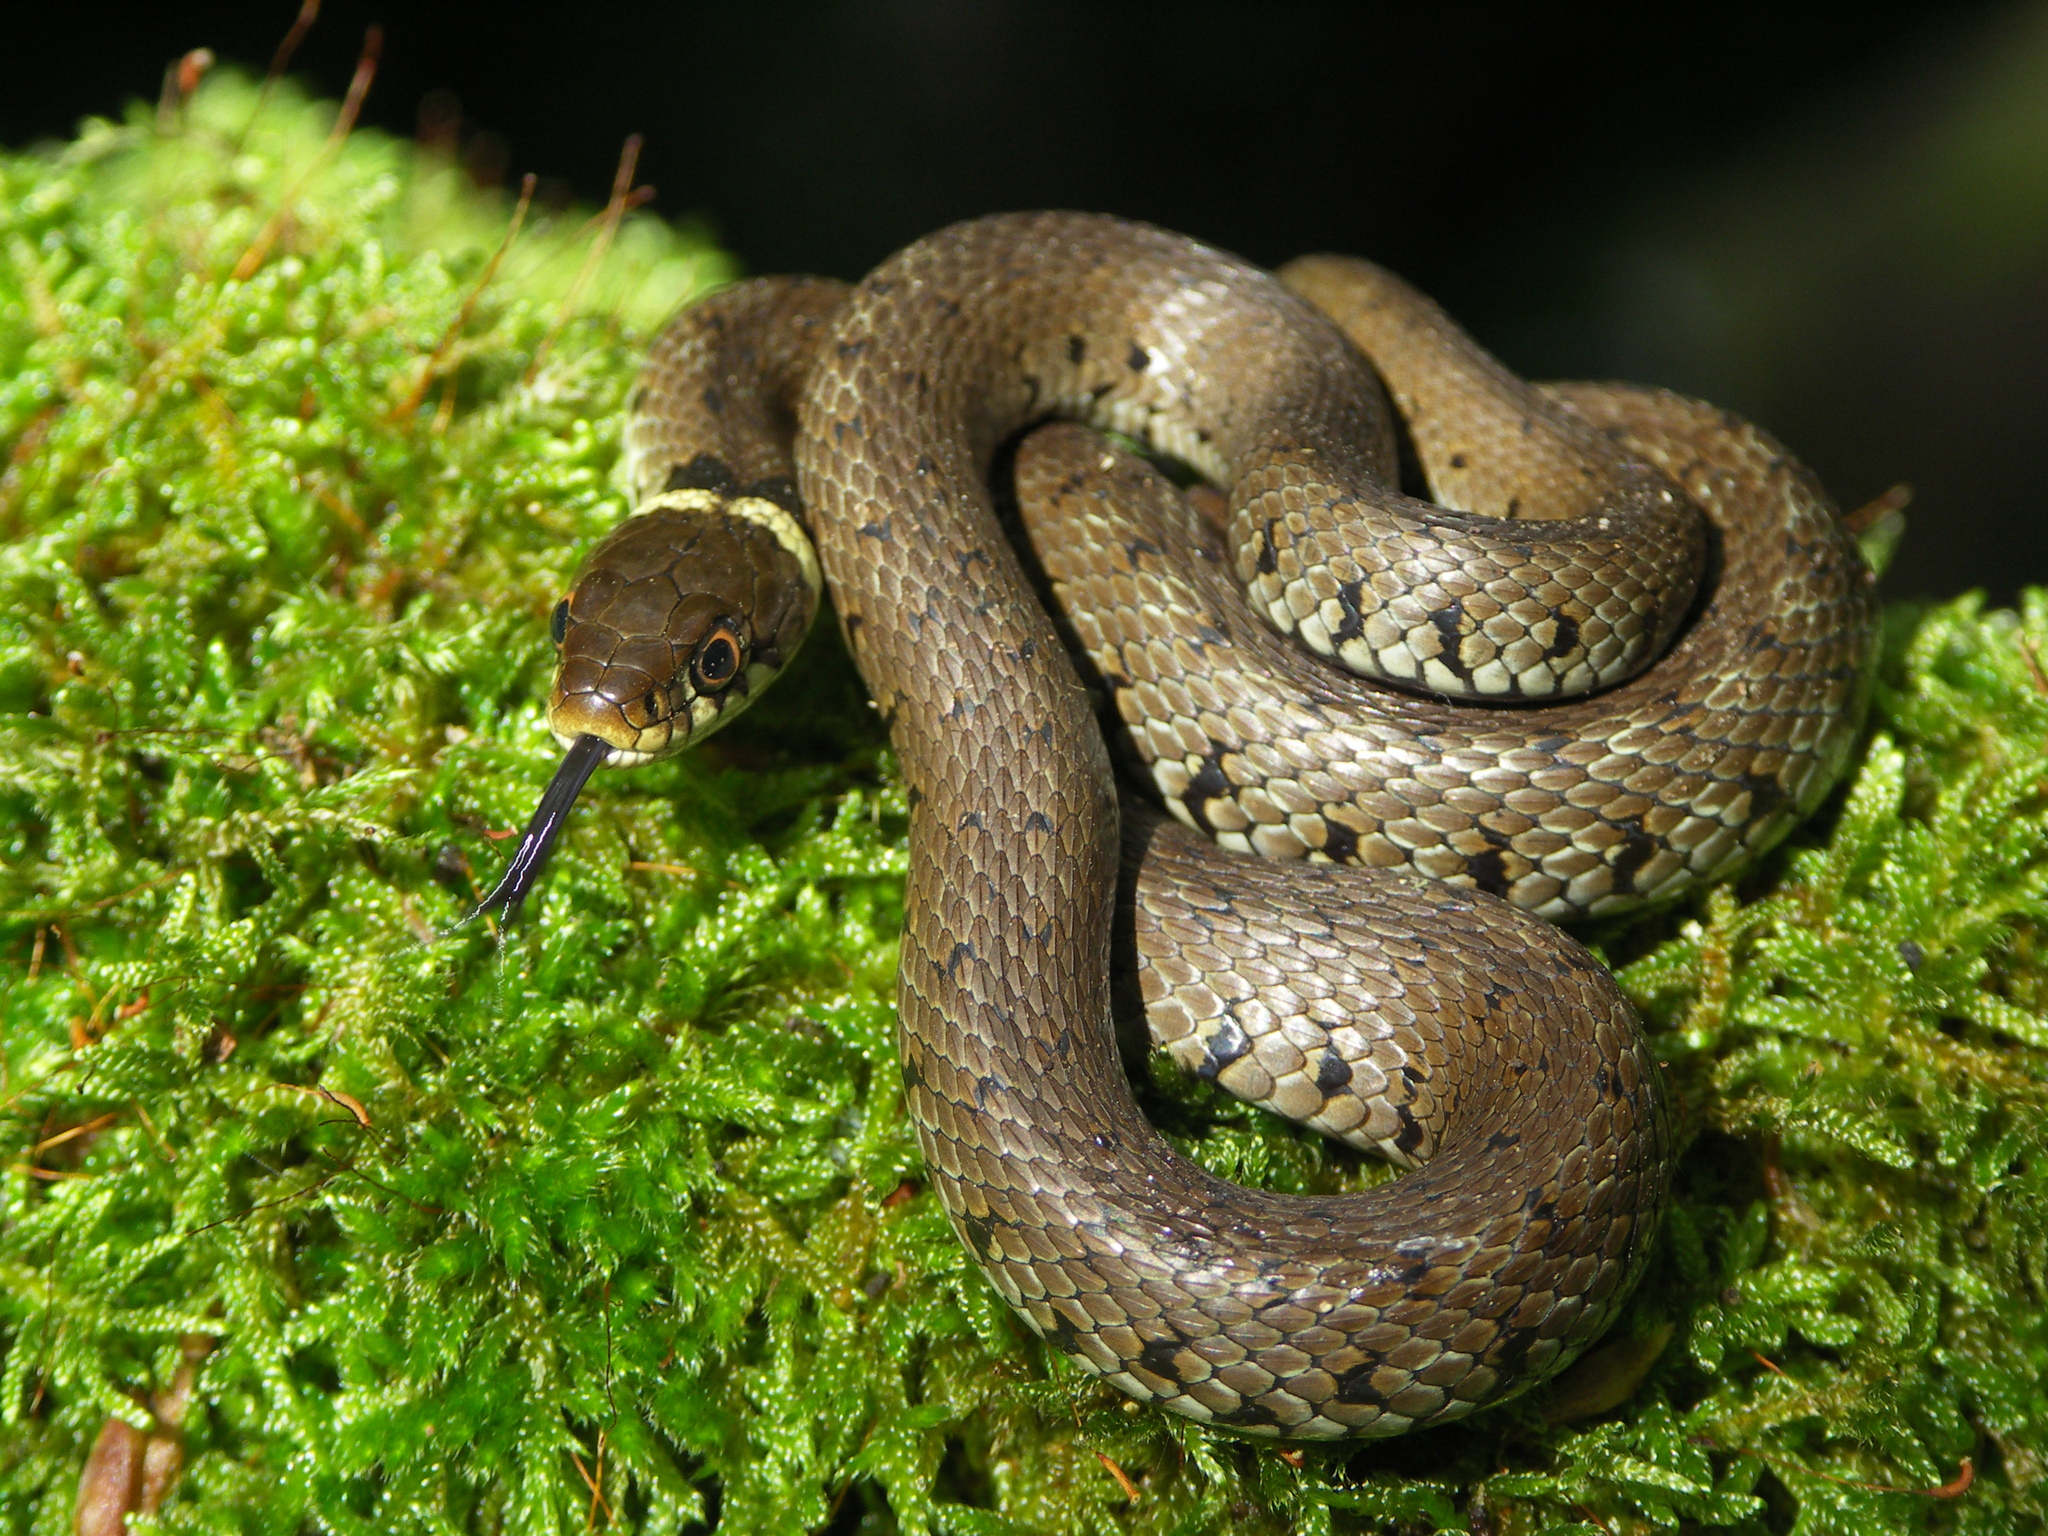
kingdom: Animalia
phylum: Chordata
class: Squamata
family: Colubridae
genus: Natrix
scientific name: Natrix helvetica
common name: Banded grass snake
